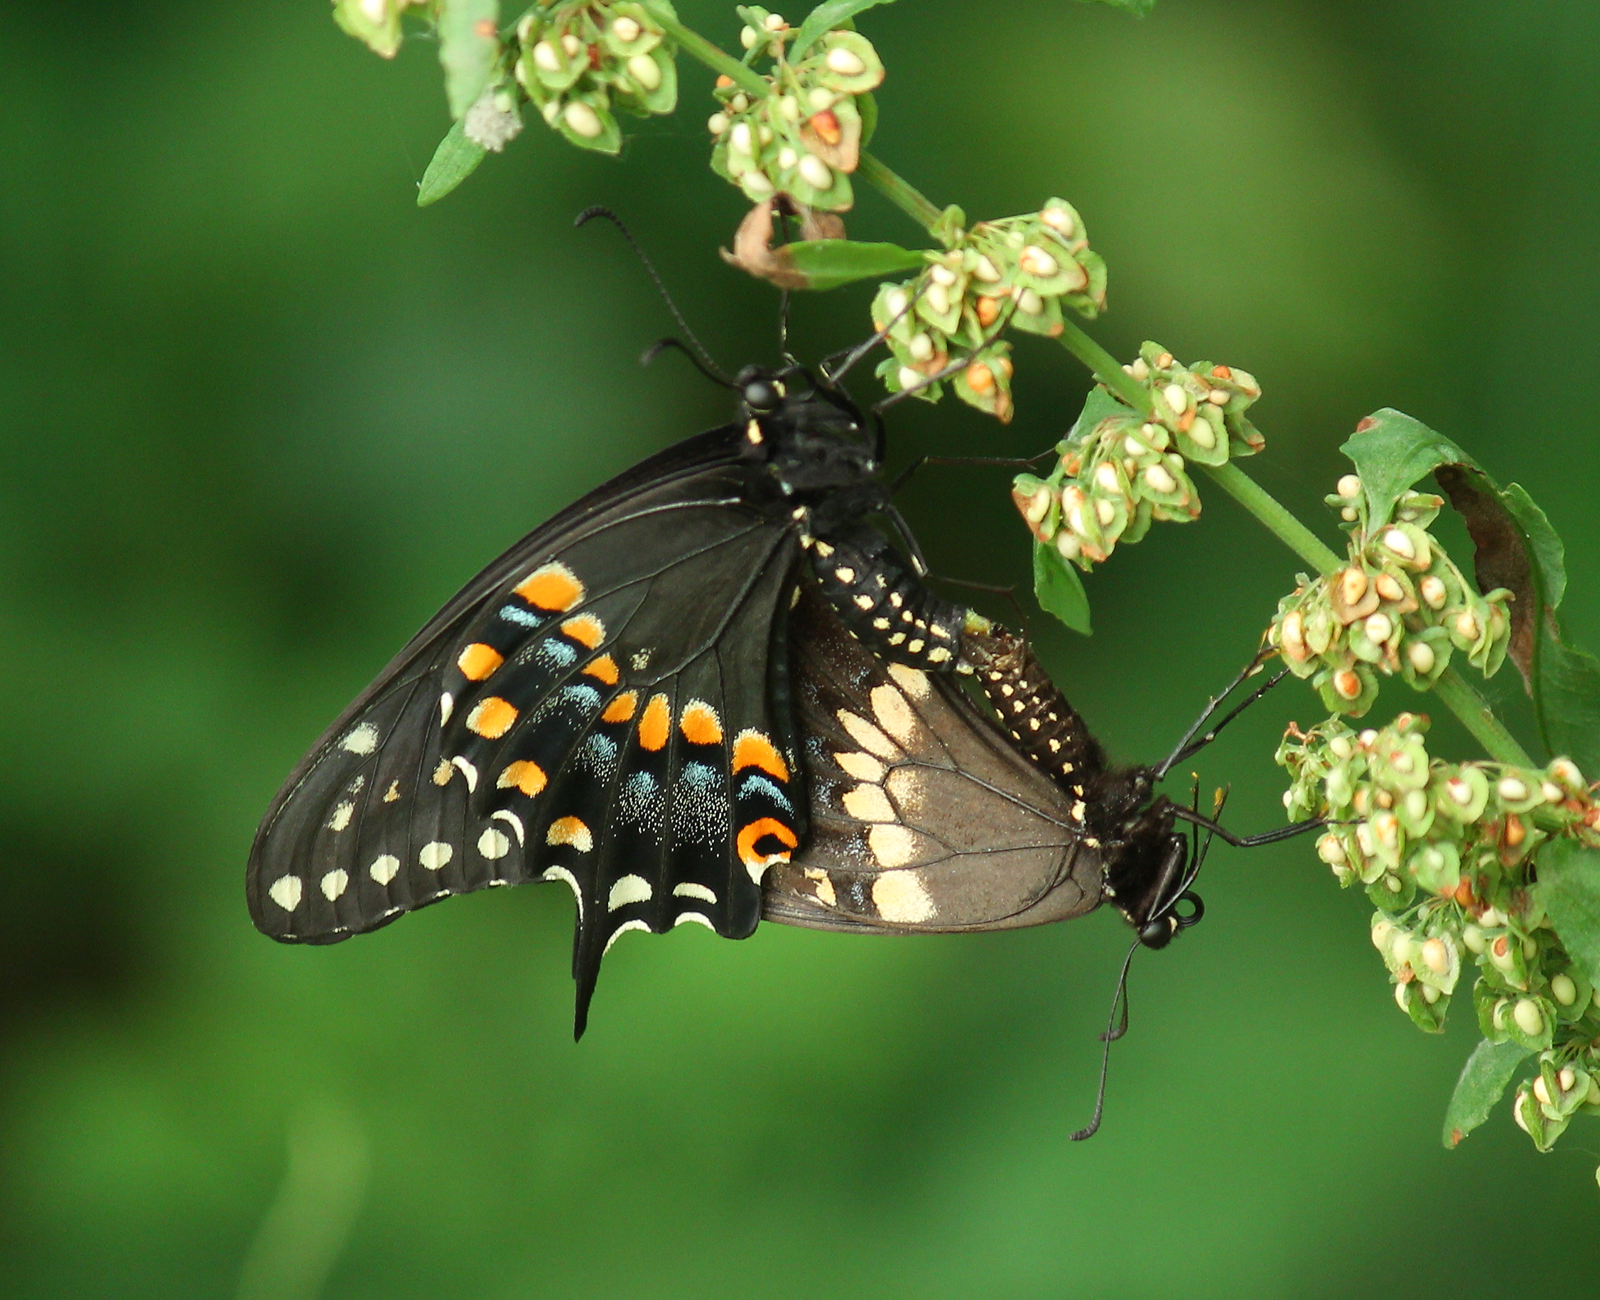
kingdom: Animalia
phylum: Arthropoda
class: Insecta
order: Lepidoptera
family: Papilionidae
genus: Papilio
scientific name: Papilio polyxenes
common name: Black swallowtail
